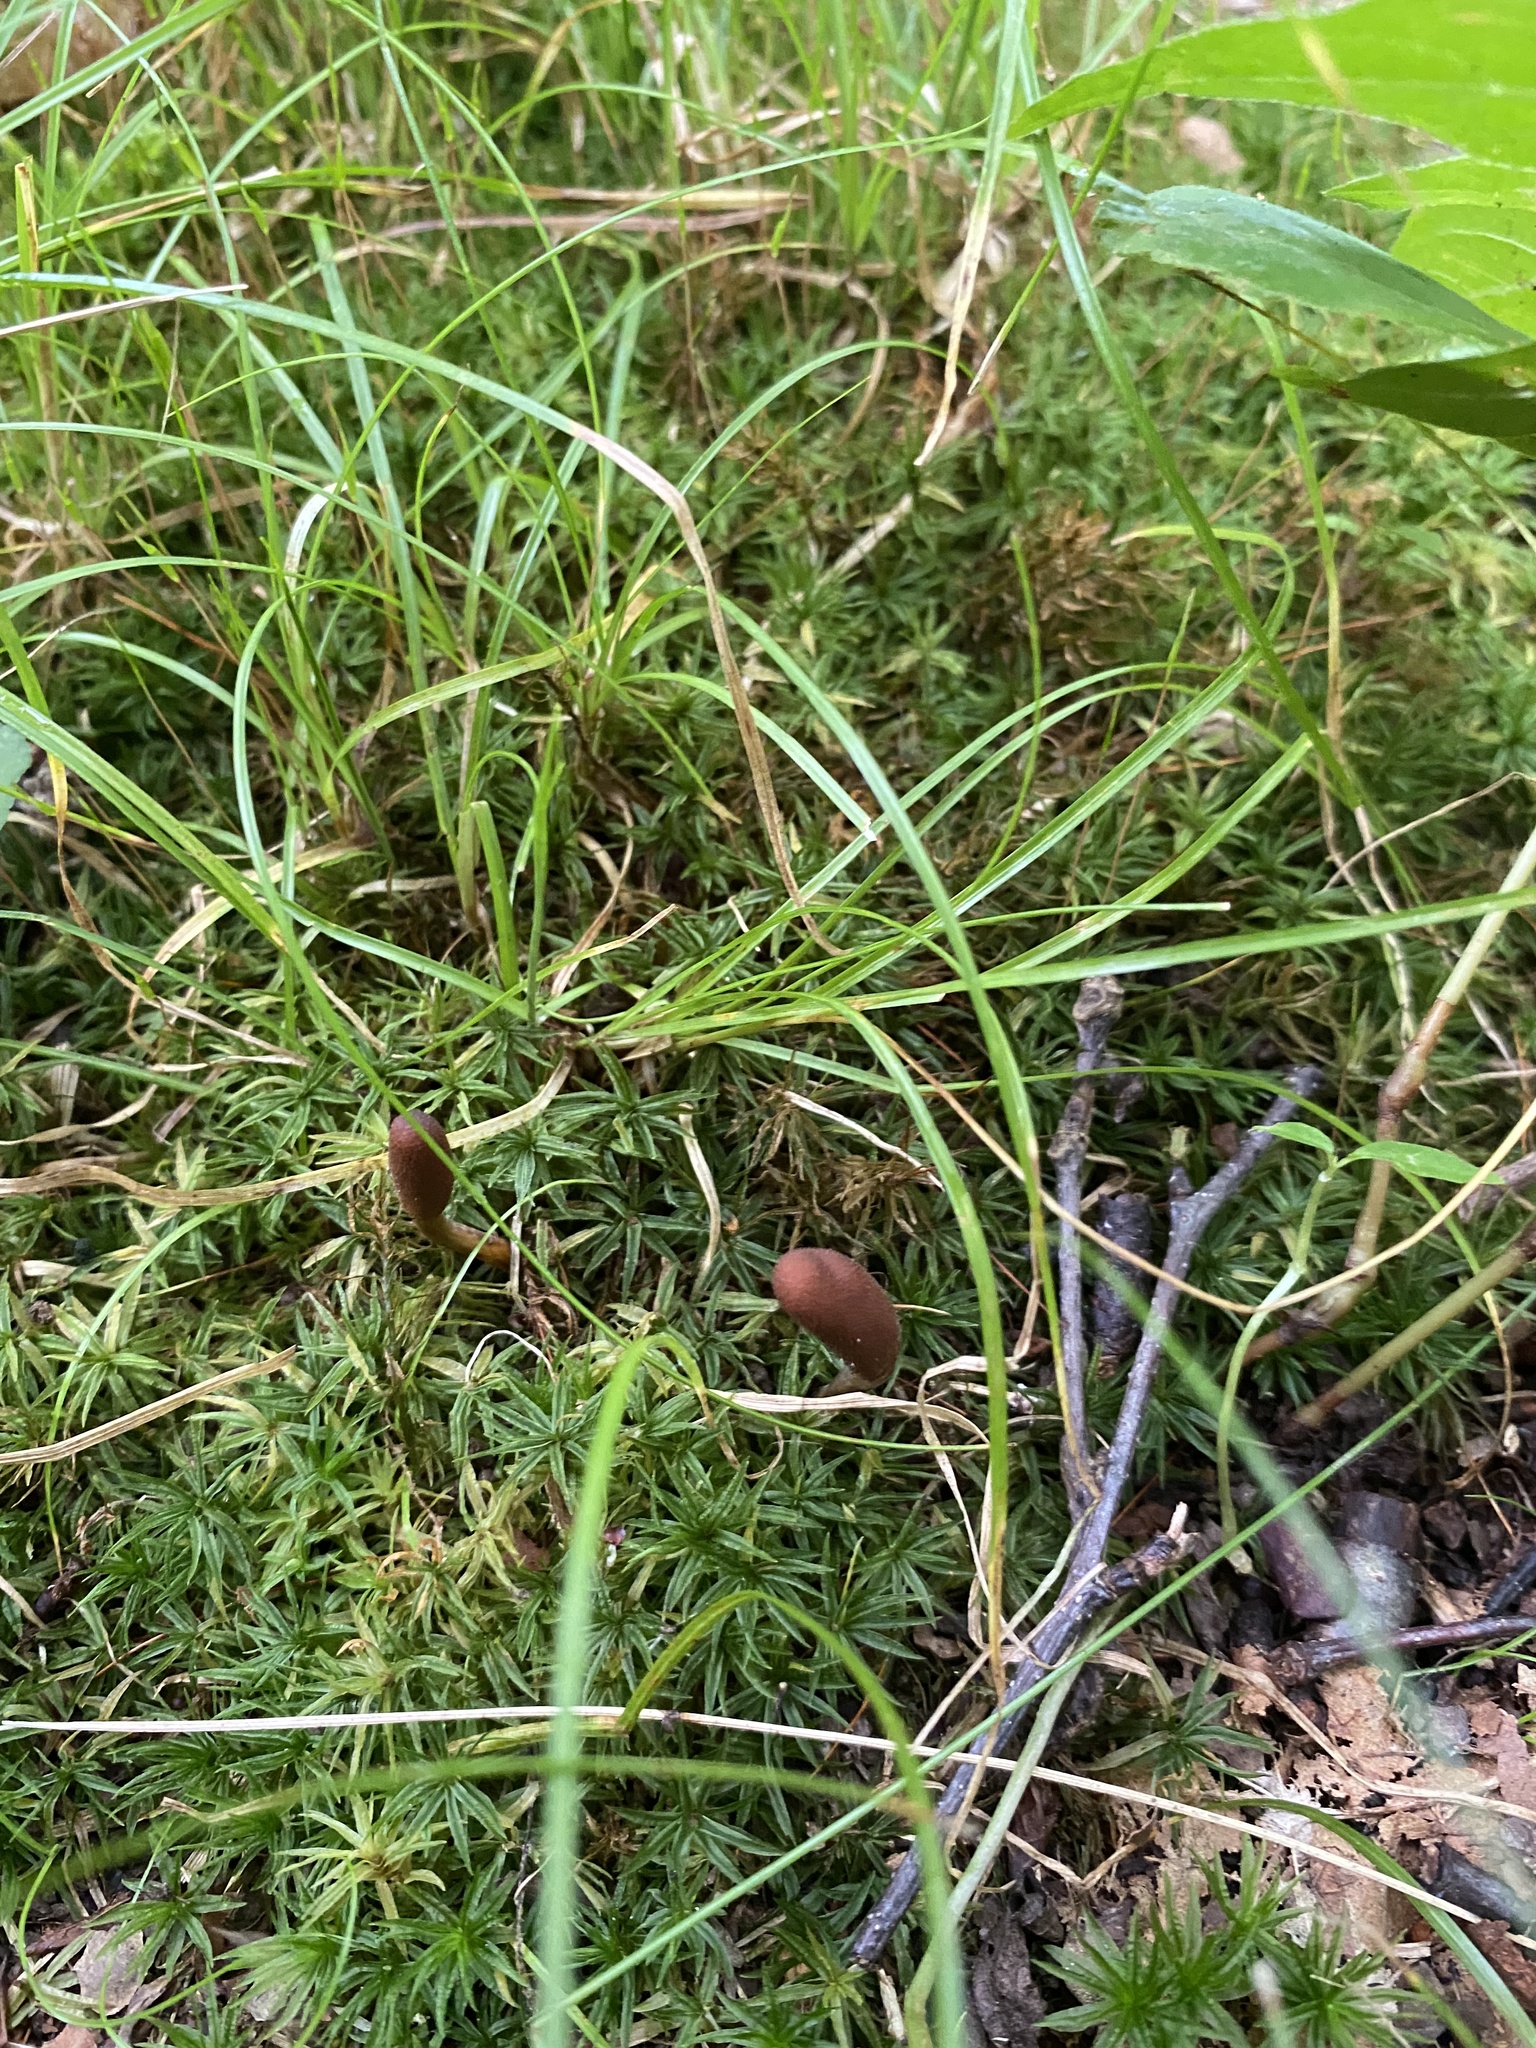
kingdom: Fungi
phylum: Ascomycota
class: Sordariomycetes
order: Hypocreales
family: Ophiocordycipitaceae
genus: Tolypocladium
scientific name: Tolypocladium ophioglossoides
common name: Snaketongue truffleclub
